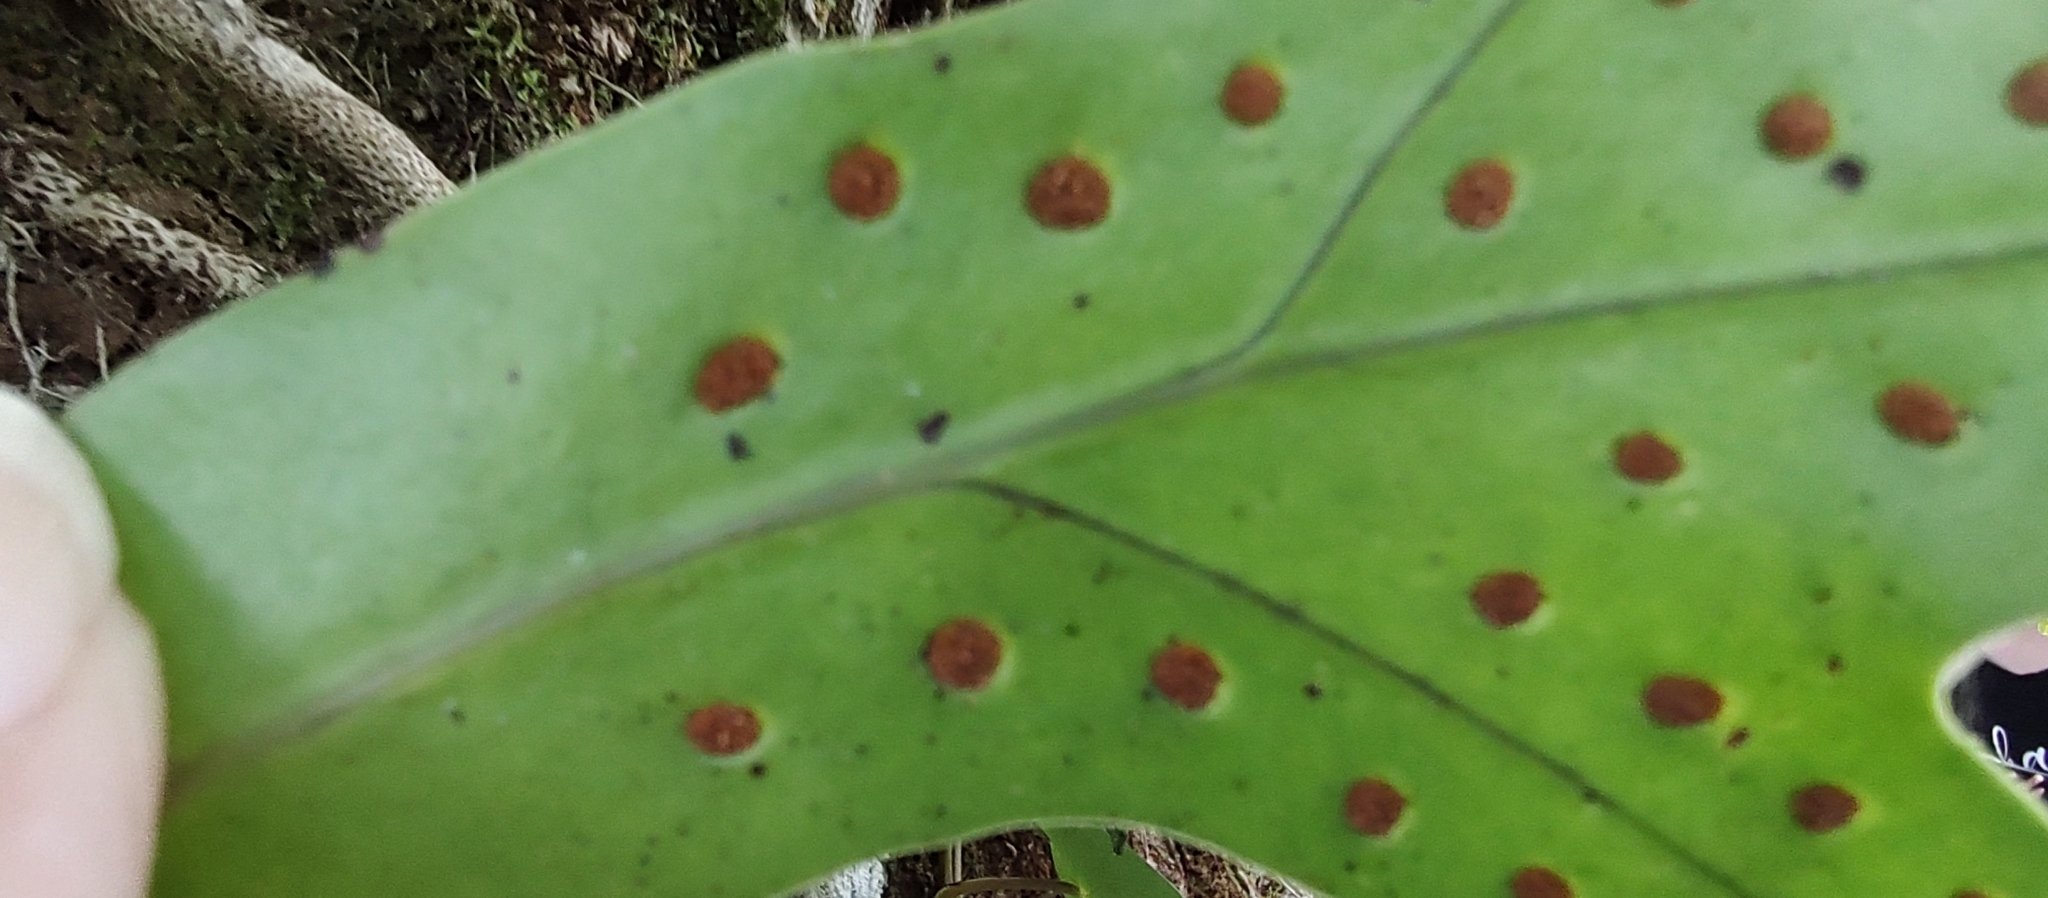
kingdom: Plantae
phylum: Tracheophyta
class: Polypodiopsida
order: Polypodiales
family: Polypodiaceae
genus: Microsorum
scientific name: Microsorum scolopendria
